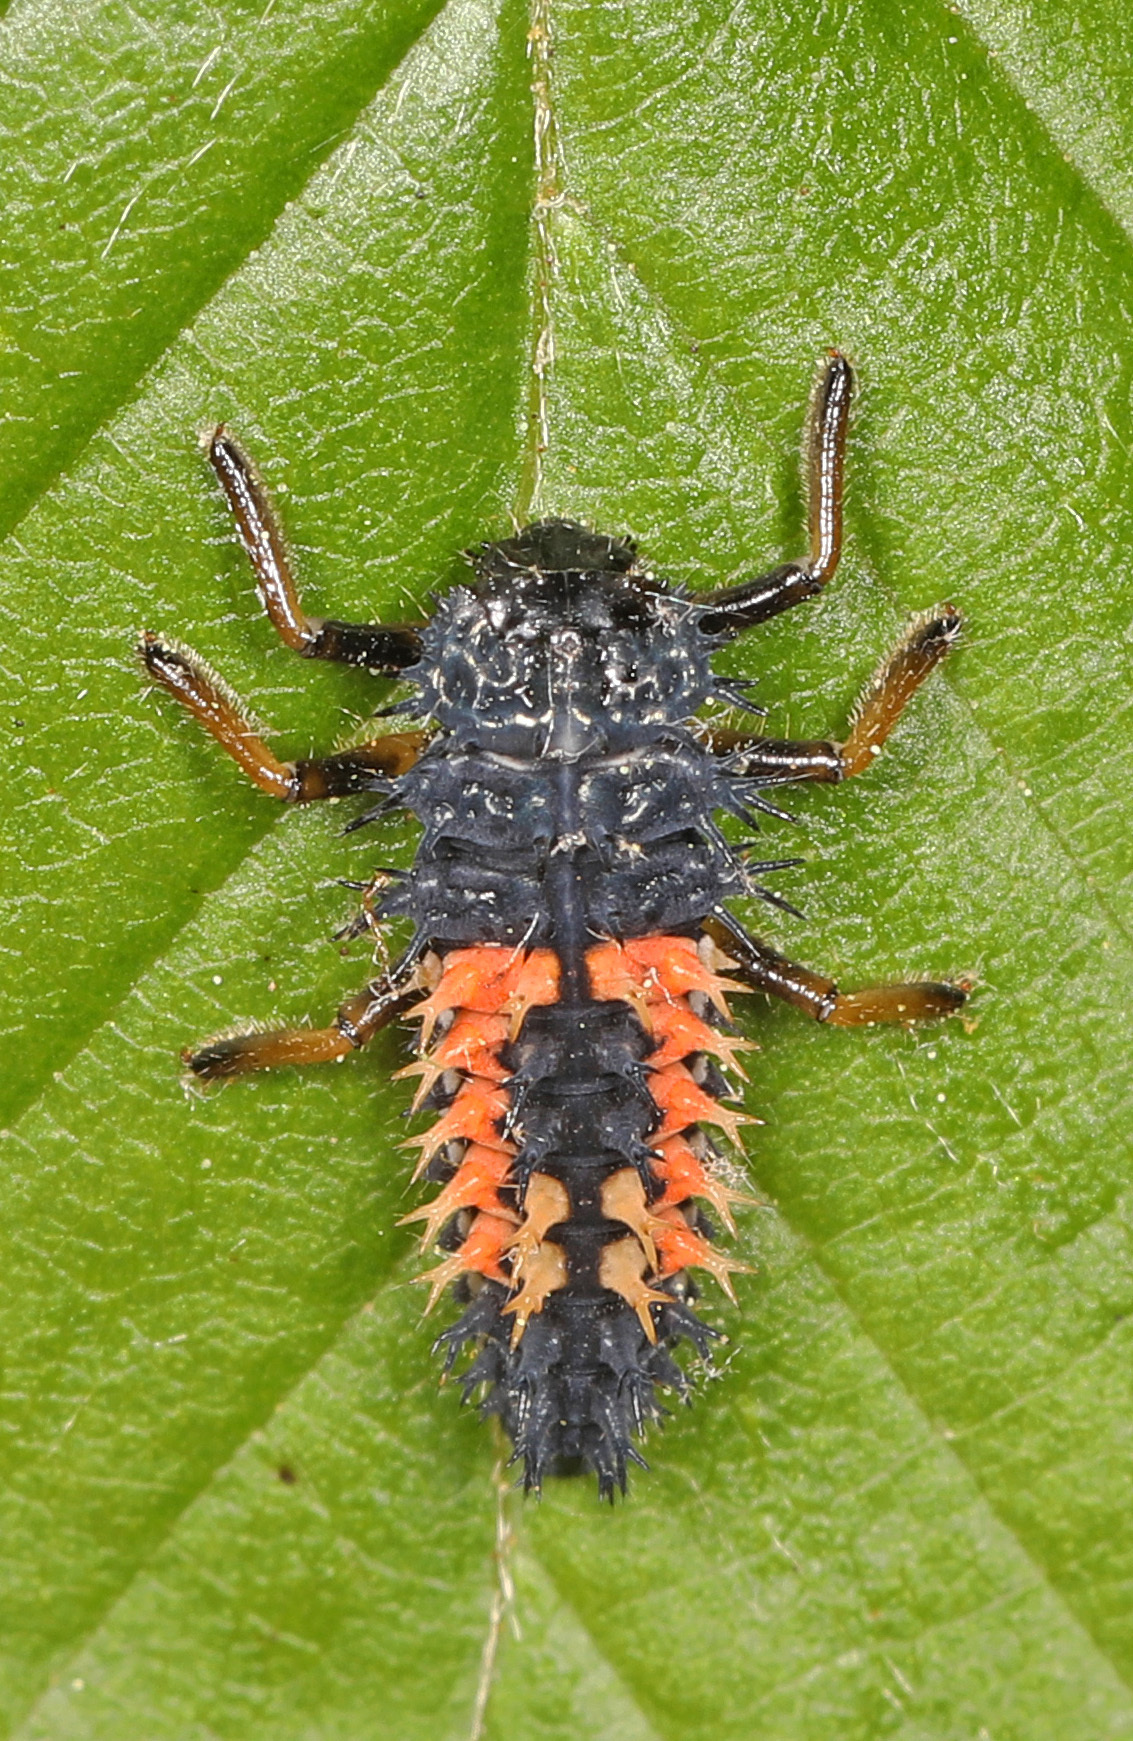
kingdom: Animalia
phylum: Arthropoda
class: Insecta
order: Coleoptera
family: Coccinellidae
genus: Harmonia
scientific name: Harmonia axyridis
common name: Harlequin ladybird
